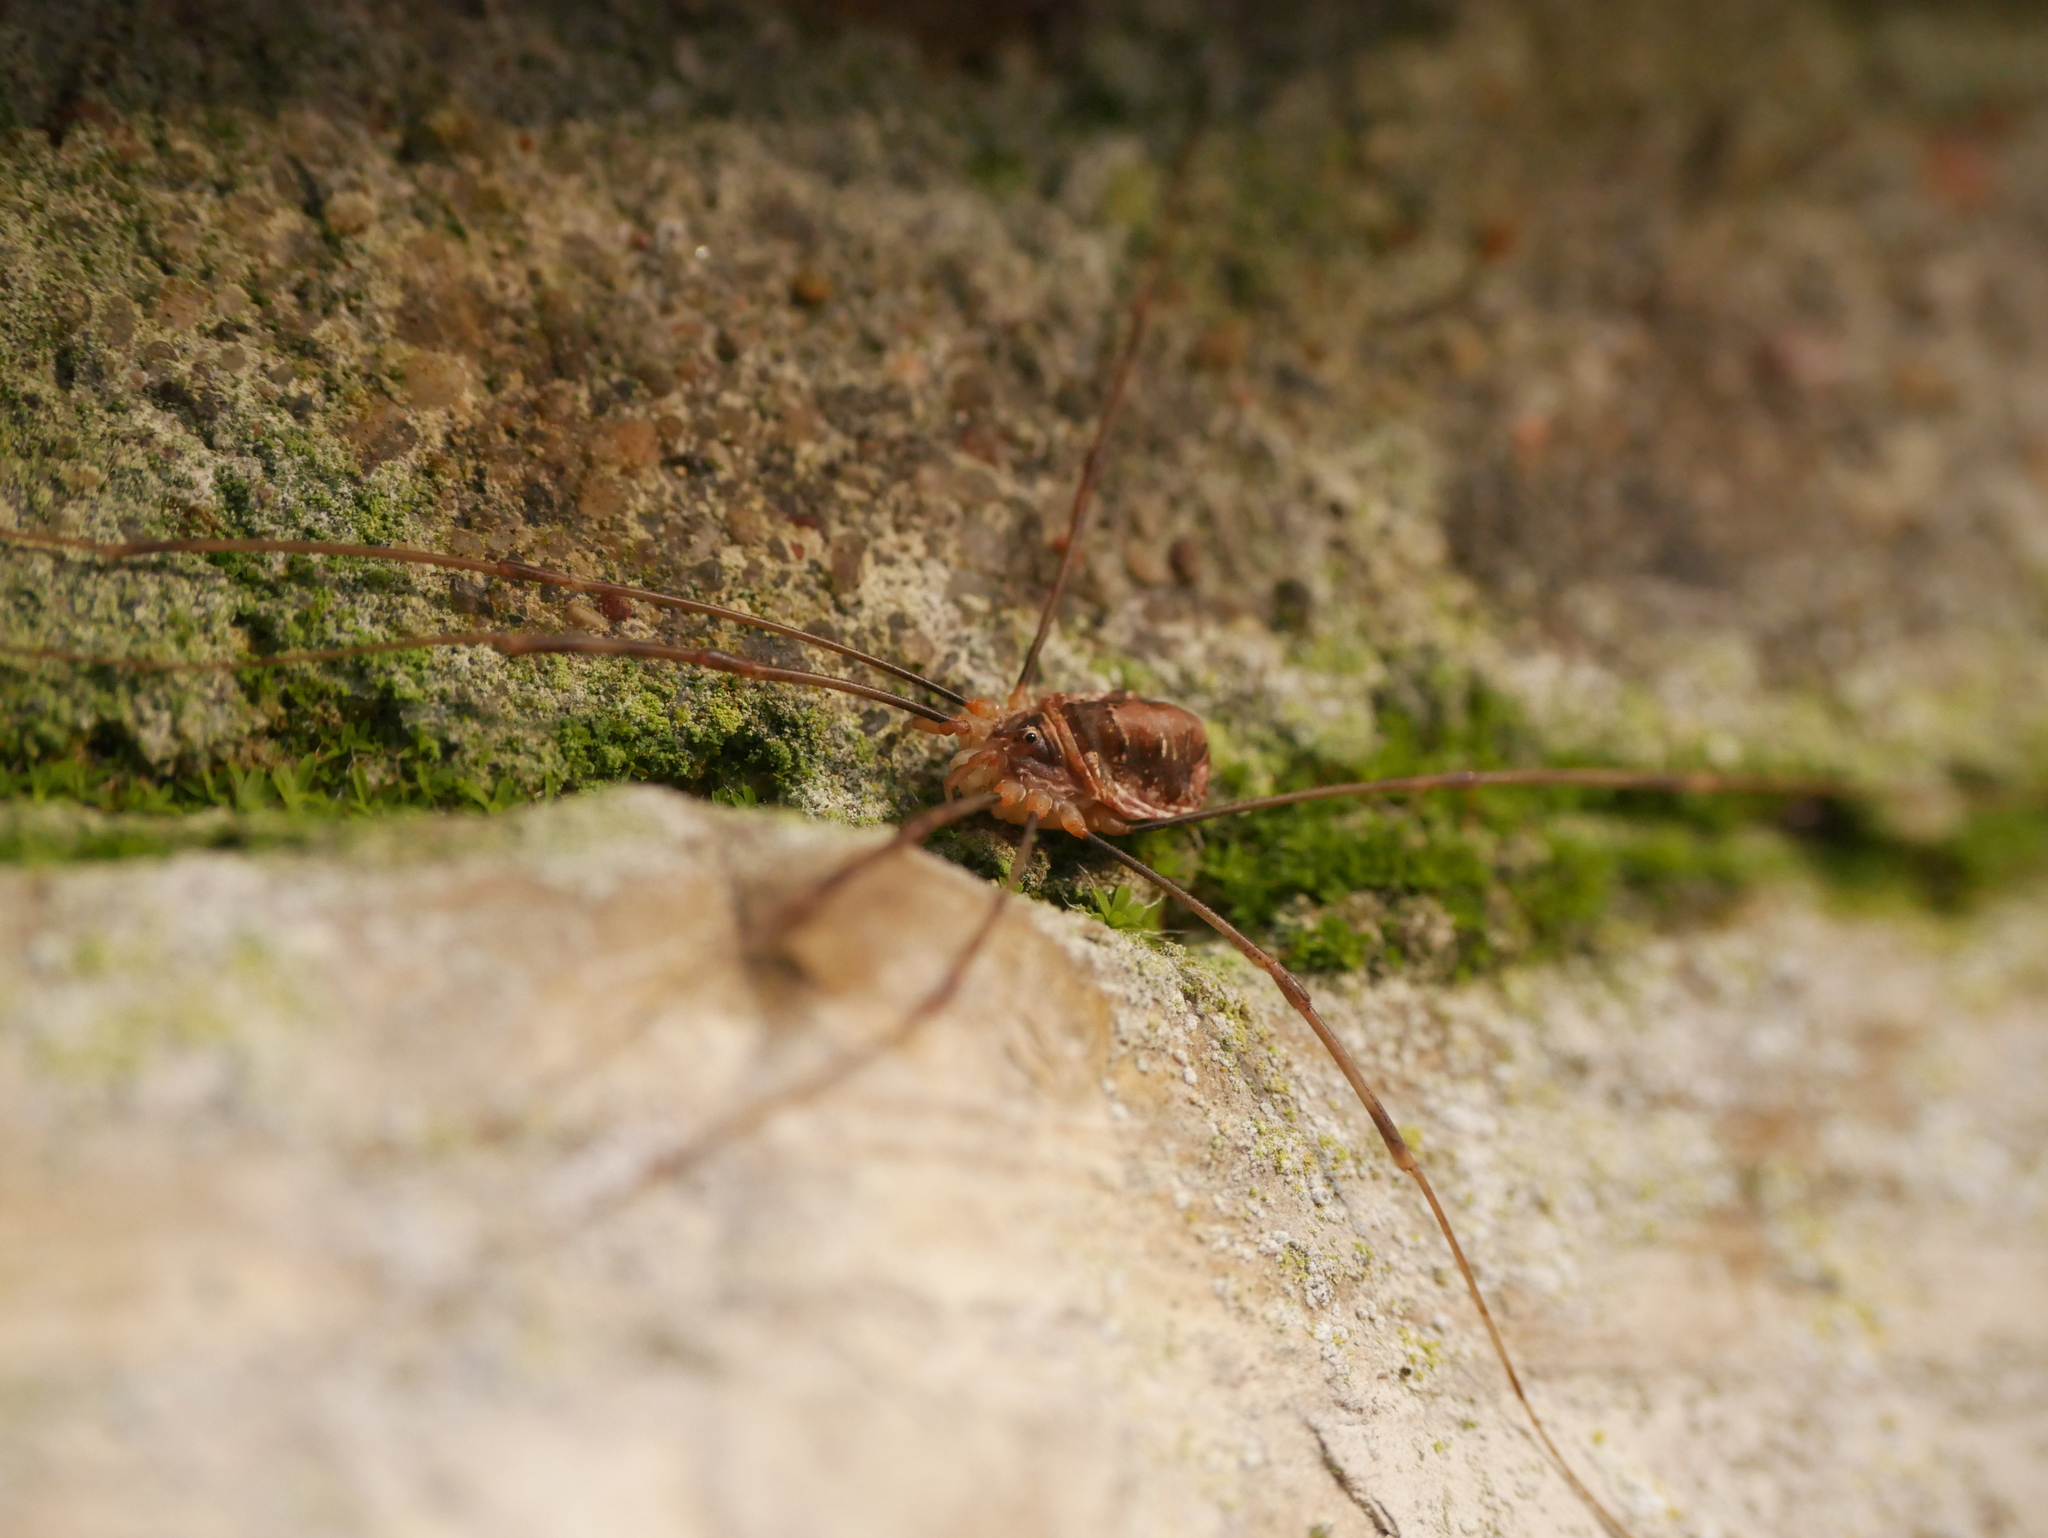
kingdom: Animalia
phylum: Arthropoda
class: Arachnida
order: Opiliones
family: Phalangiidae
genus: Opilio
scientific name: Opilio canestrinii
